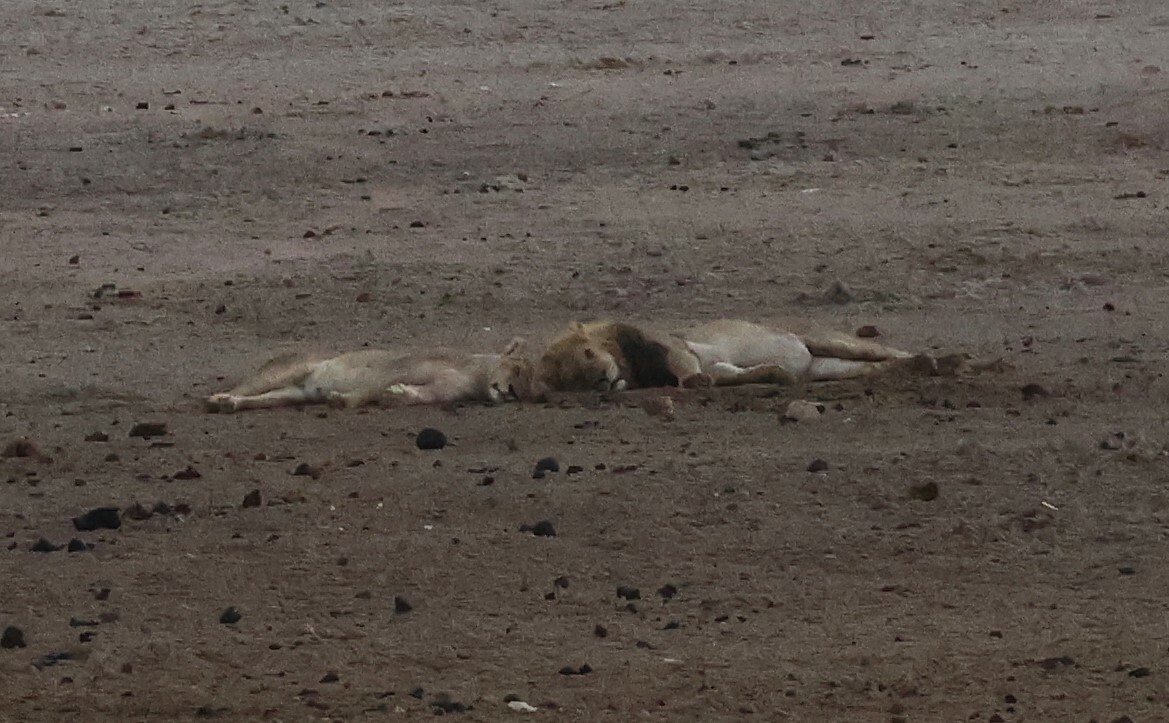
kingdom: Animalia
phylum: Chordata
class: Mammalia
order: Carnivora
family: Felidae
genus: Panthera
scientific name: Panthera leo
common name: Lion
